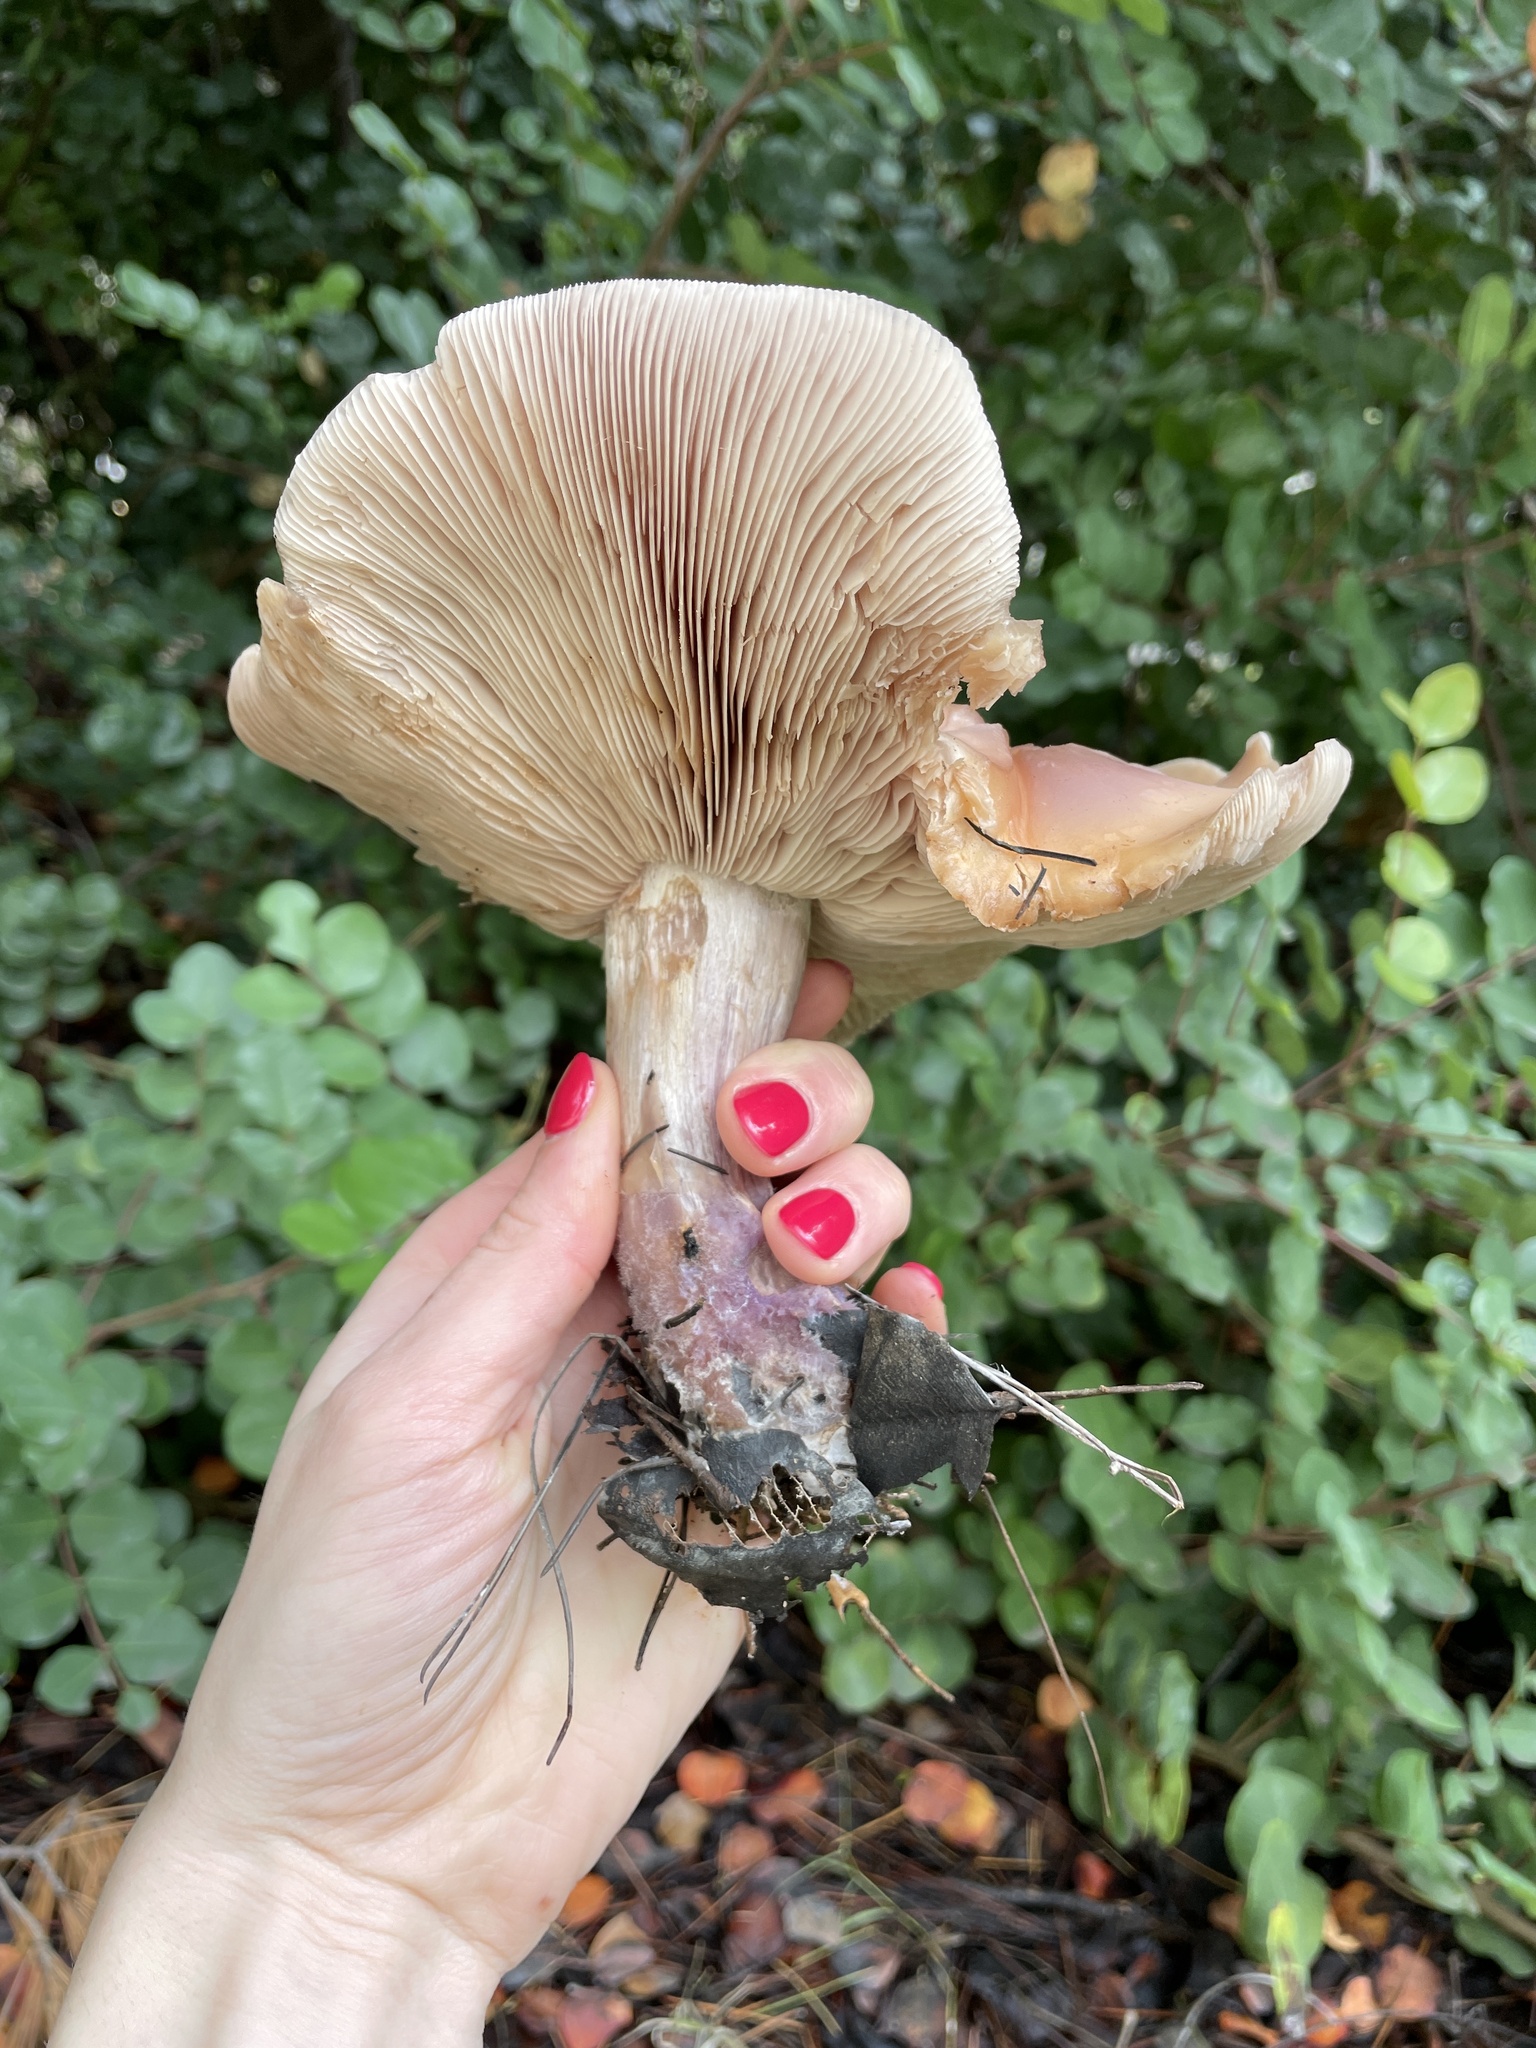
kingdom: Fungi
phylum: Basidiomycota
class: Agaricomycetes
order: Agaricales
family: Tricholomataceae
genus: Collybia
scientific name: Collybia
